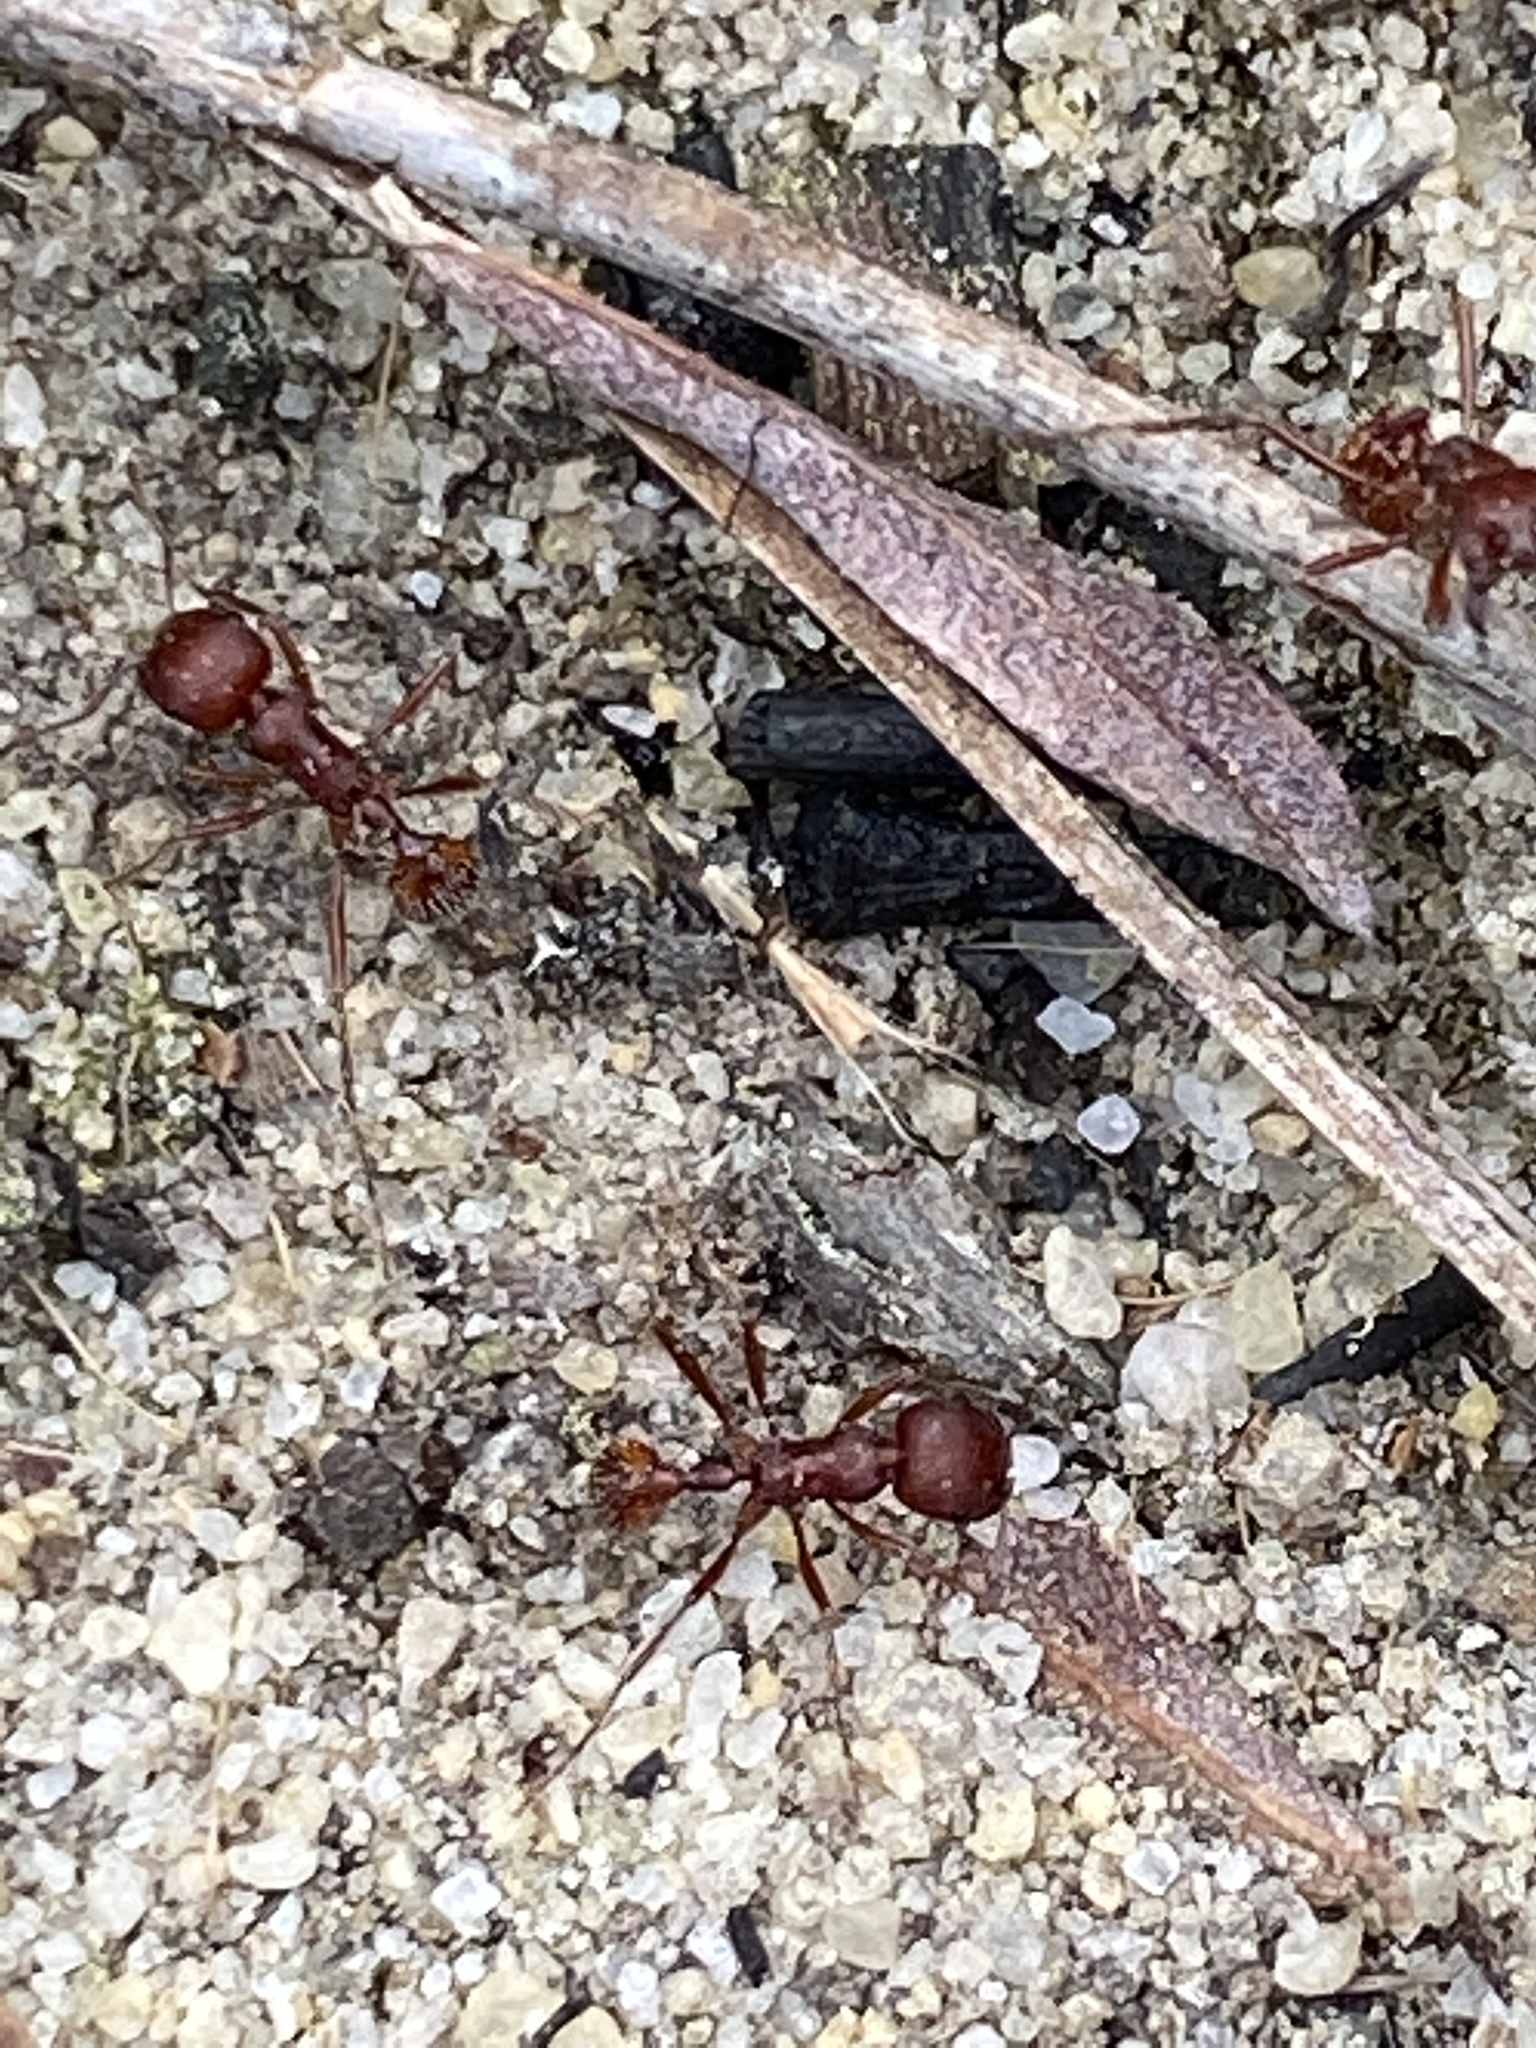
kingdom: Animalia
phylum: Arthropoda
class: Insecta
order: Hymenoptera
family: Formicidae
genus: Pogonomyrmex
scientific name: Pogonomyrmex badius
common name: Florida harvester ant
